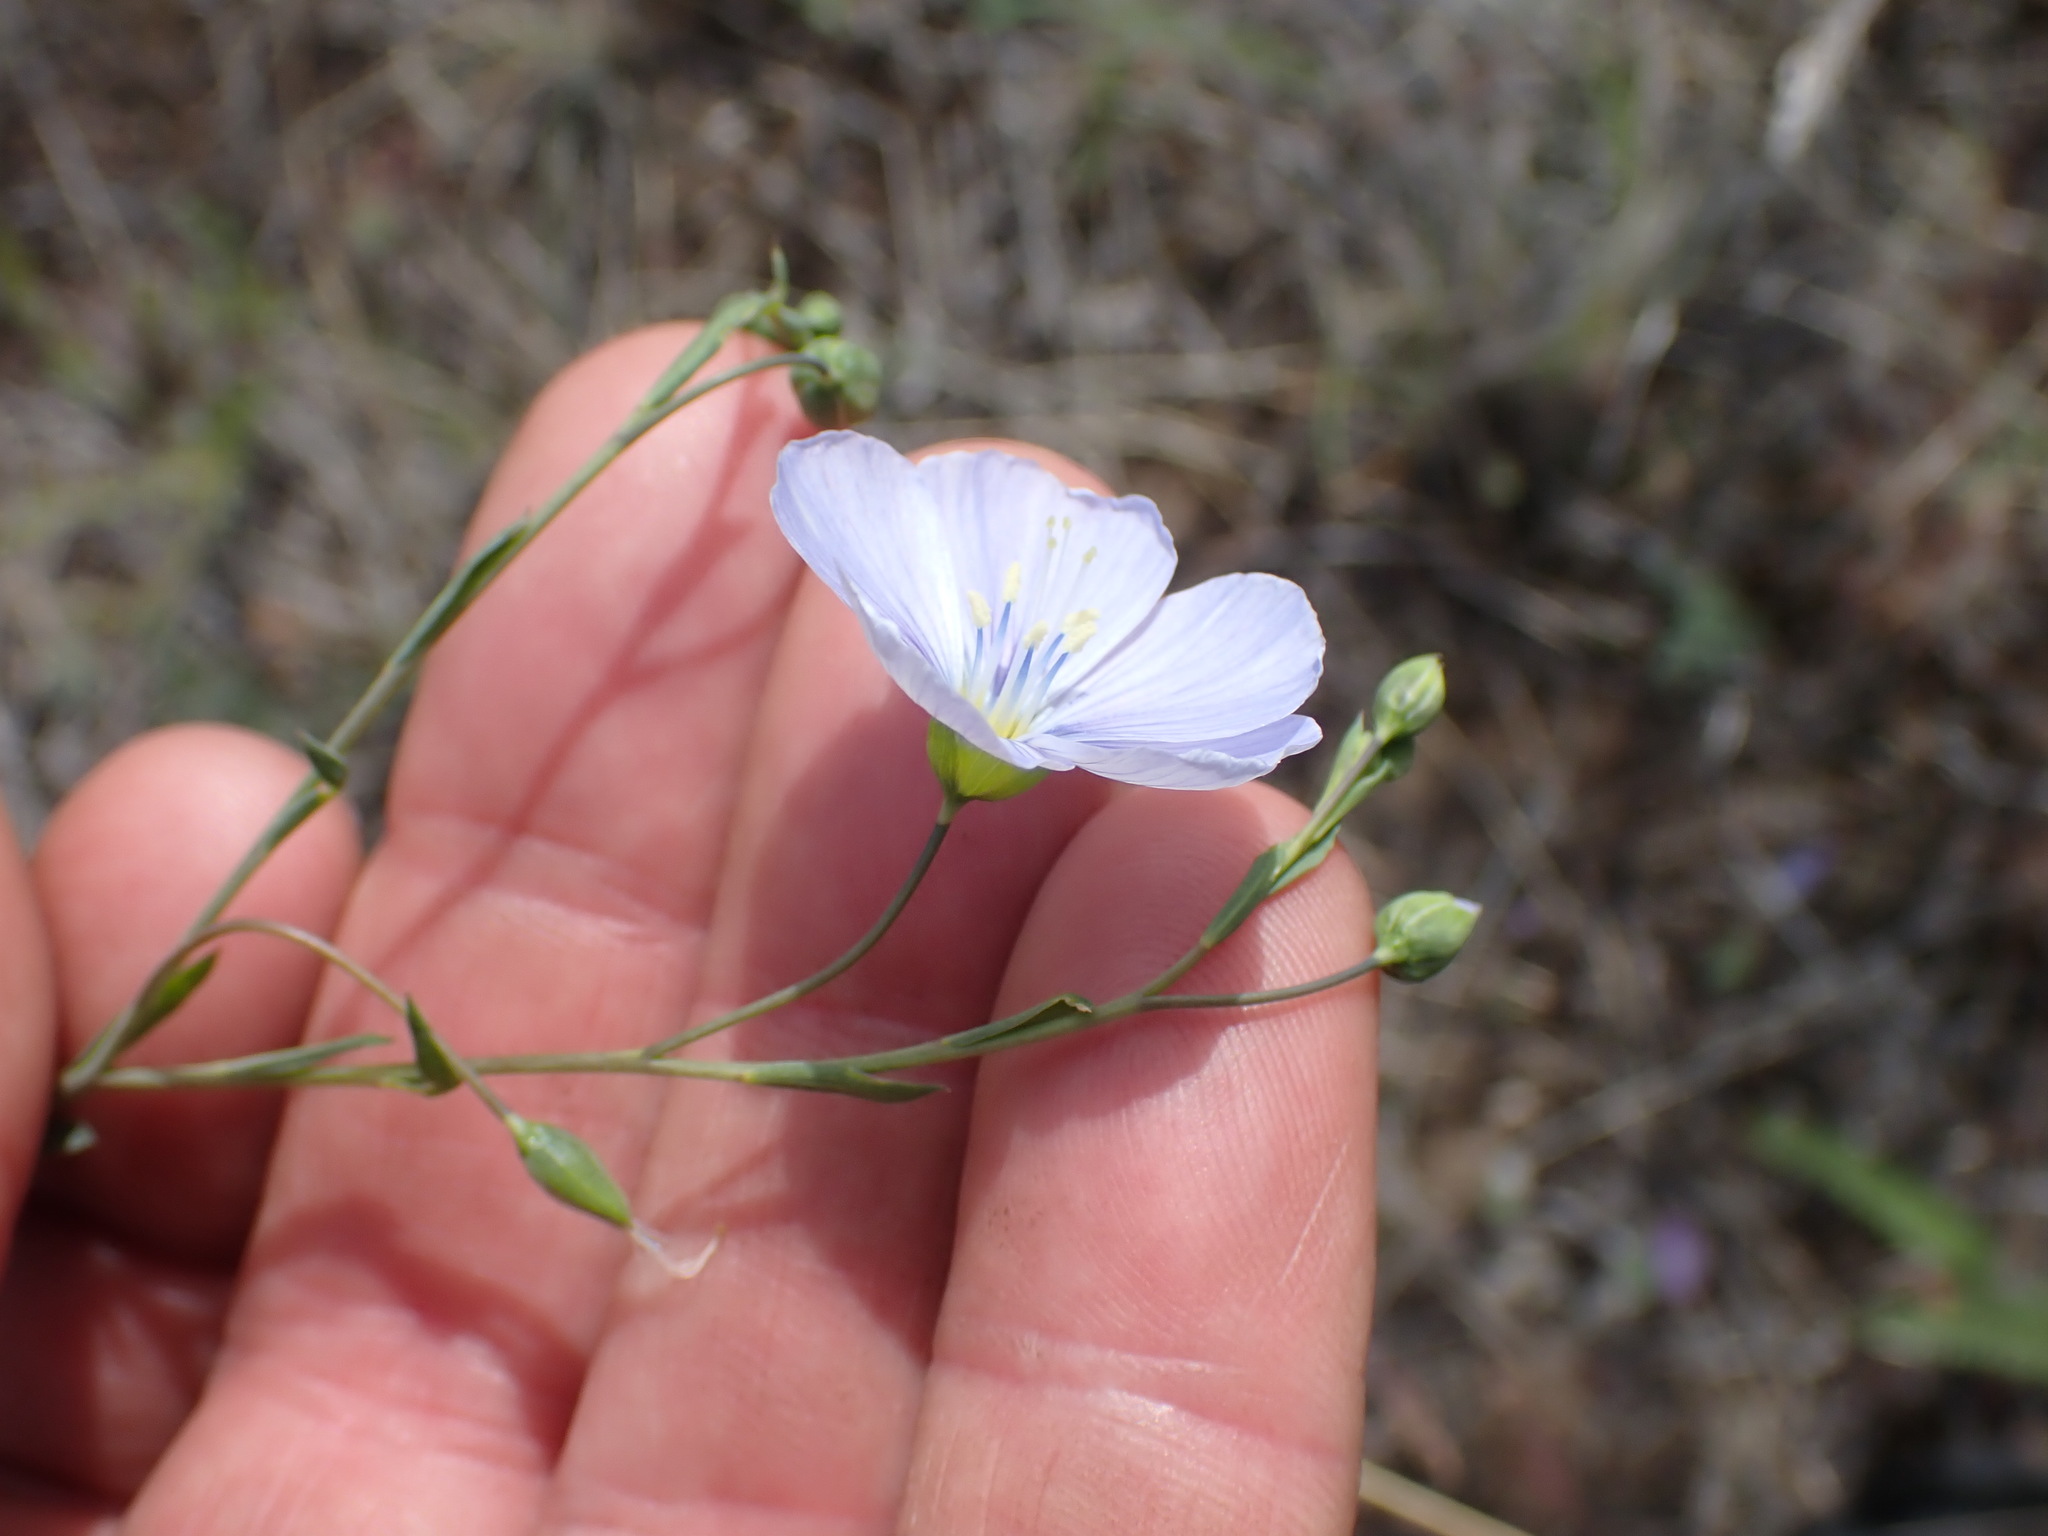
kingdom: Plantae
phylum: Tracheophyta
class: Magnoliopsida
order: Malpighiales
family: Linaceae
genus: Linum
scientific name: Linum lewisii
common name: Prairie flax
